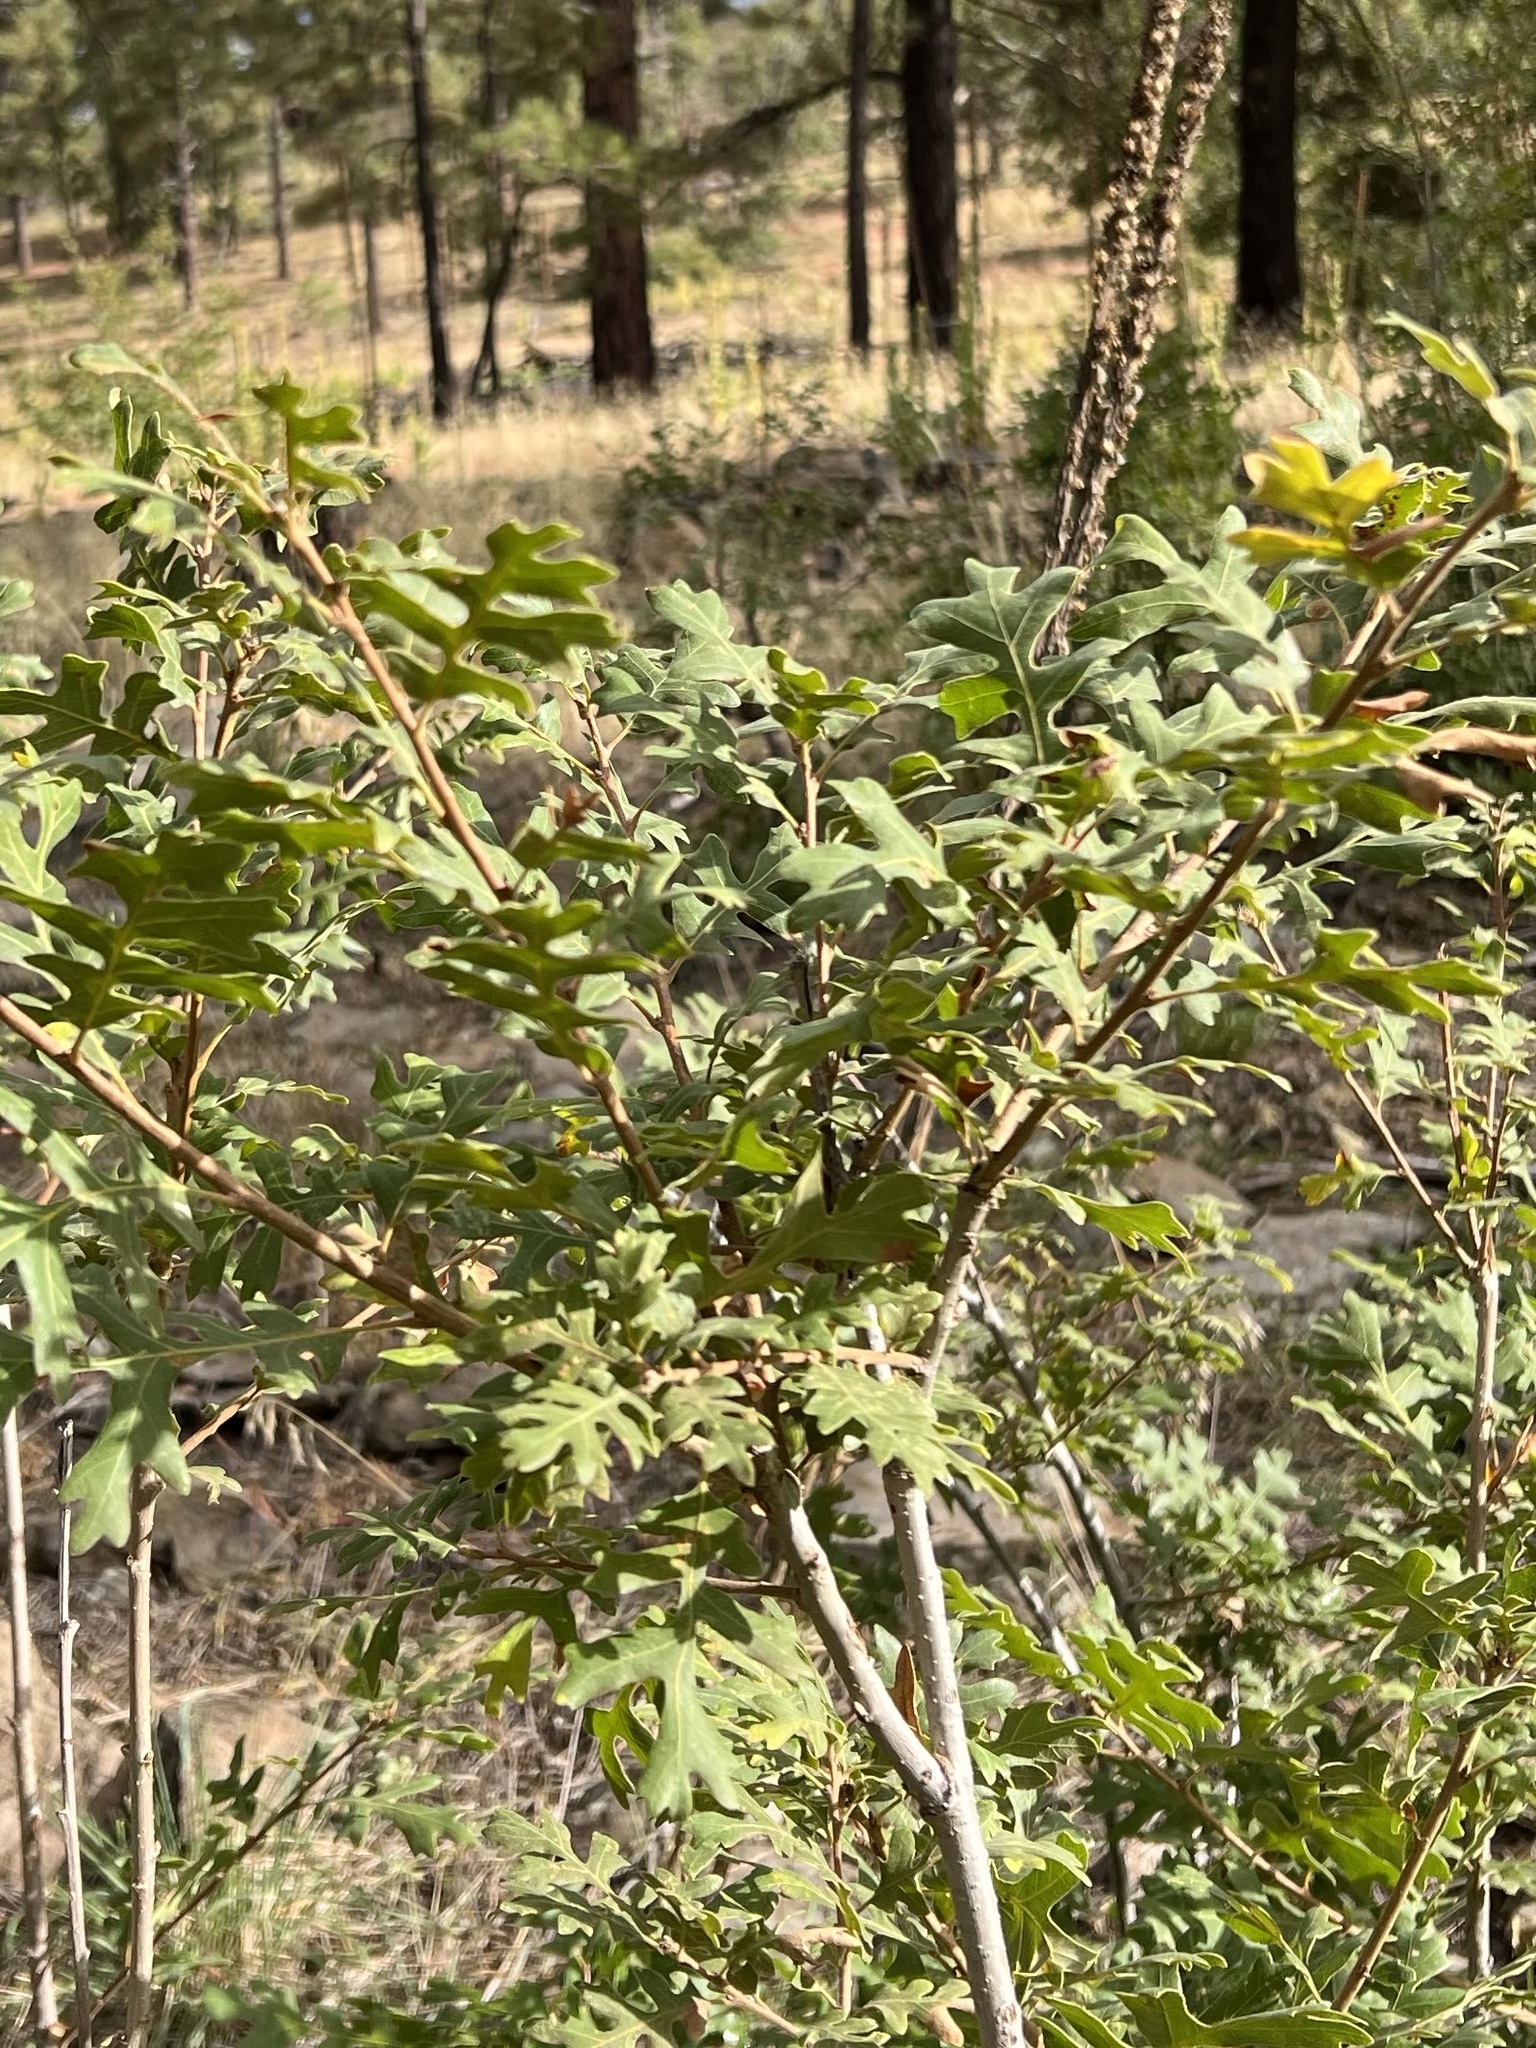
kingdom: Plantae
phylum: Tracheophyta
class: Magnoliopsida
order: Fagales
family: Fagaceae
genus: Quercus
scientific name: Quercus gambelii
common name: Gambel oak
